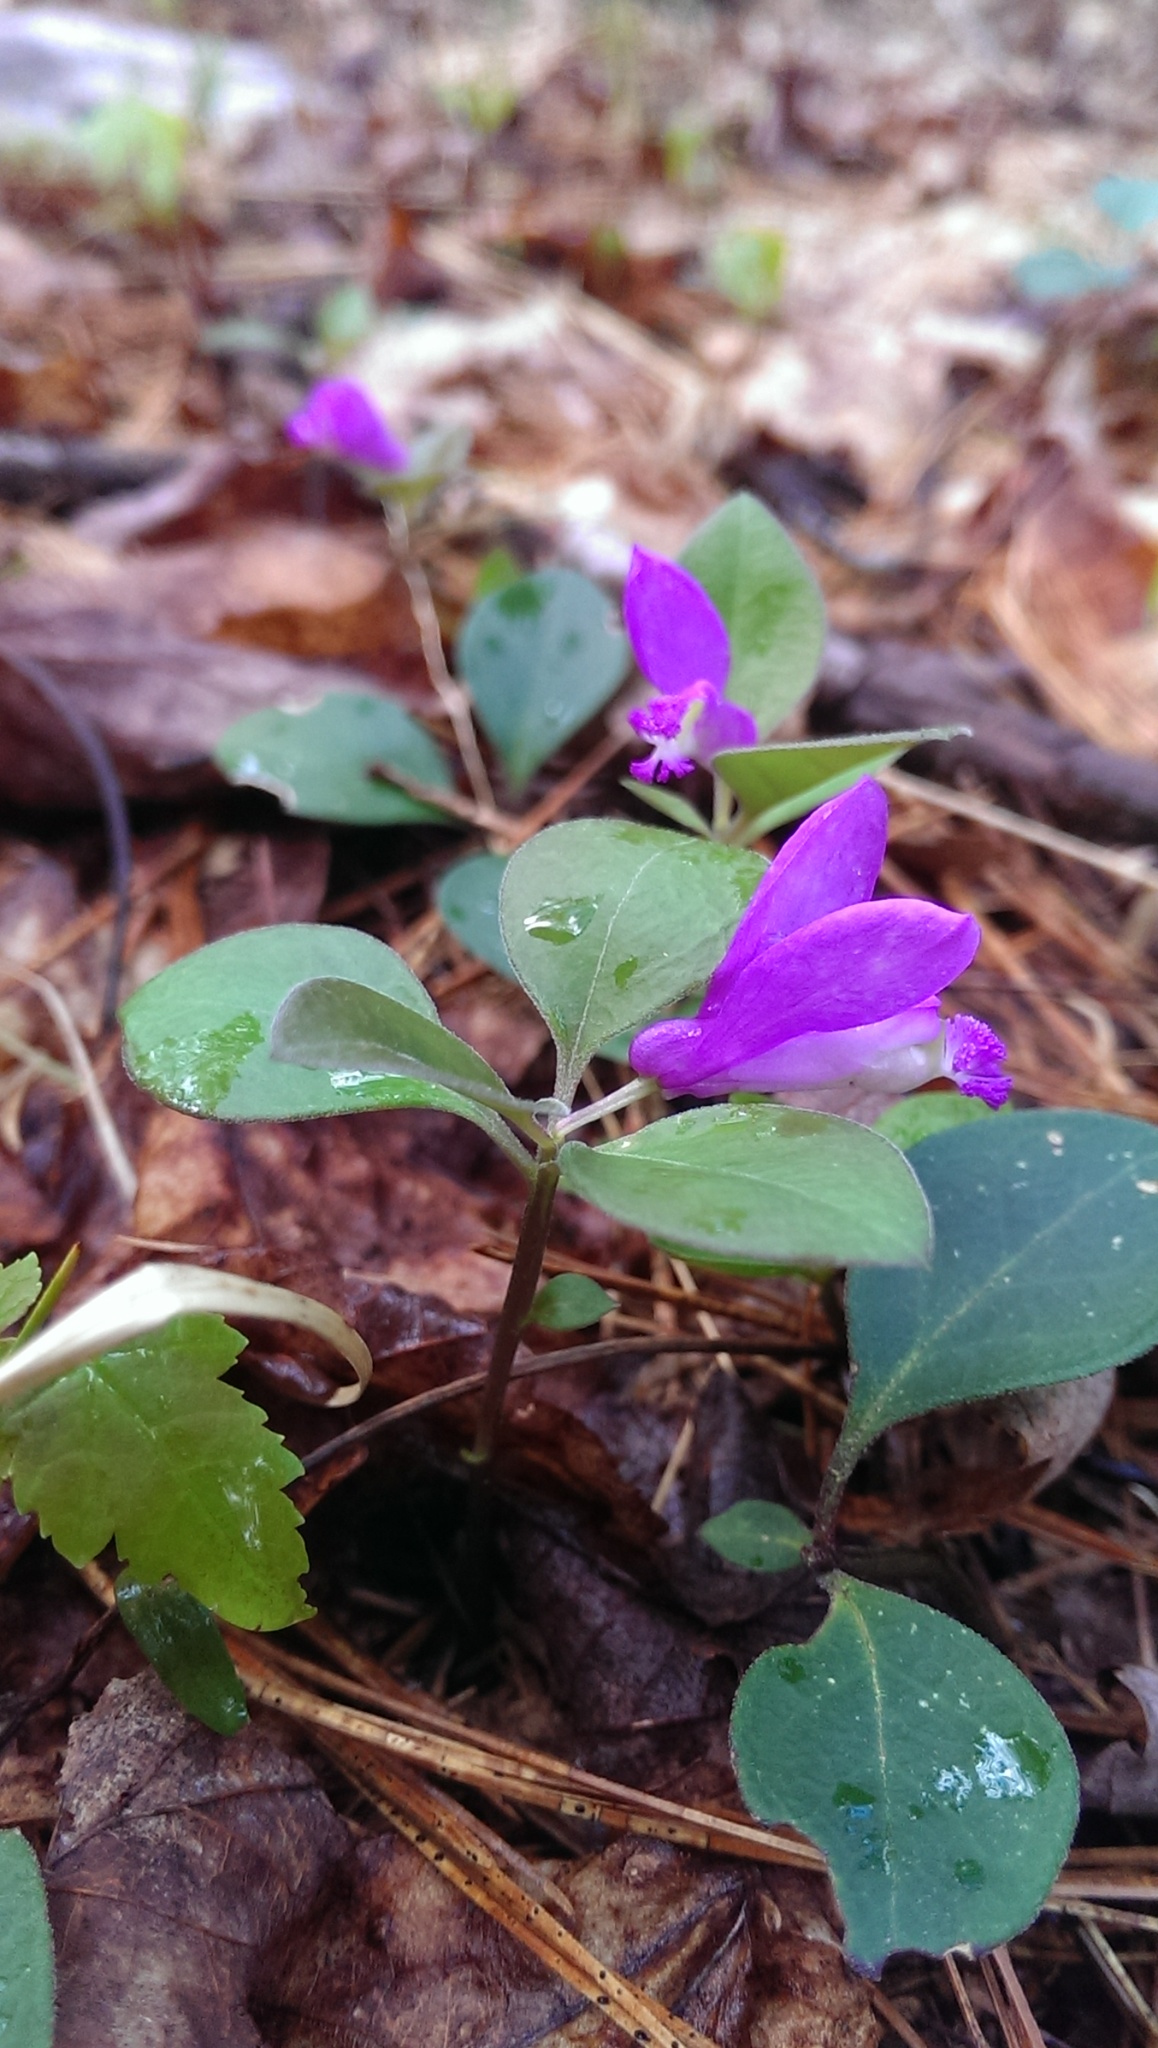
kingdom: Plantae
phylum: Tracheophyta
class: Magnoliopsida
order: Fabales
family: Polygalaceae
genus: Polygaloides
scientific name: Polygaloides paucifolia
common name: Bird-on-the-wing
